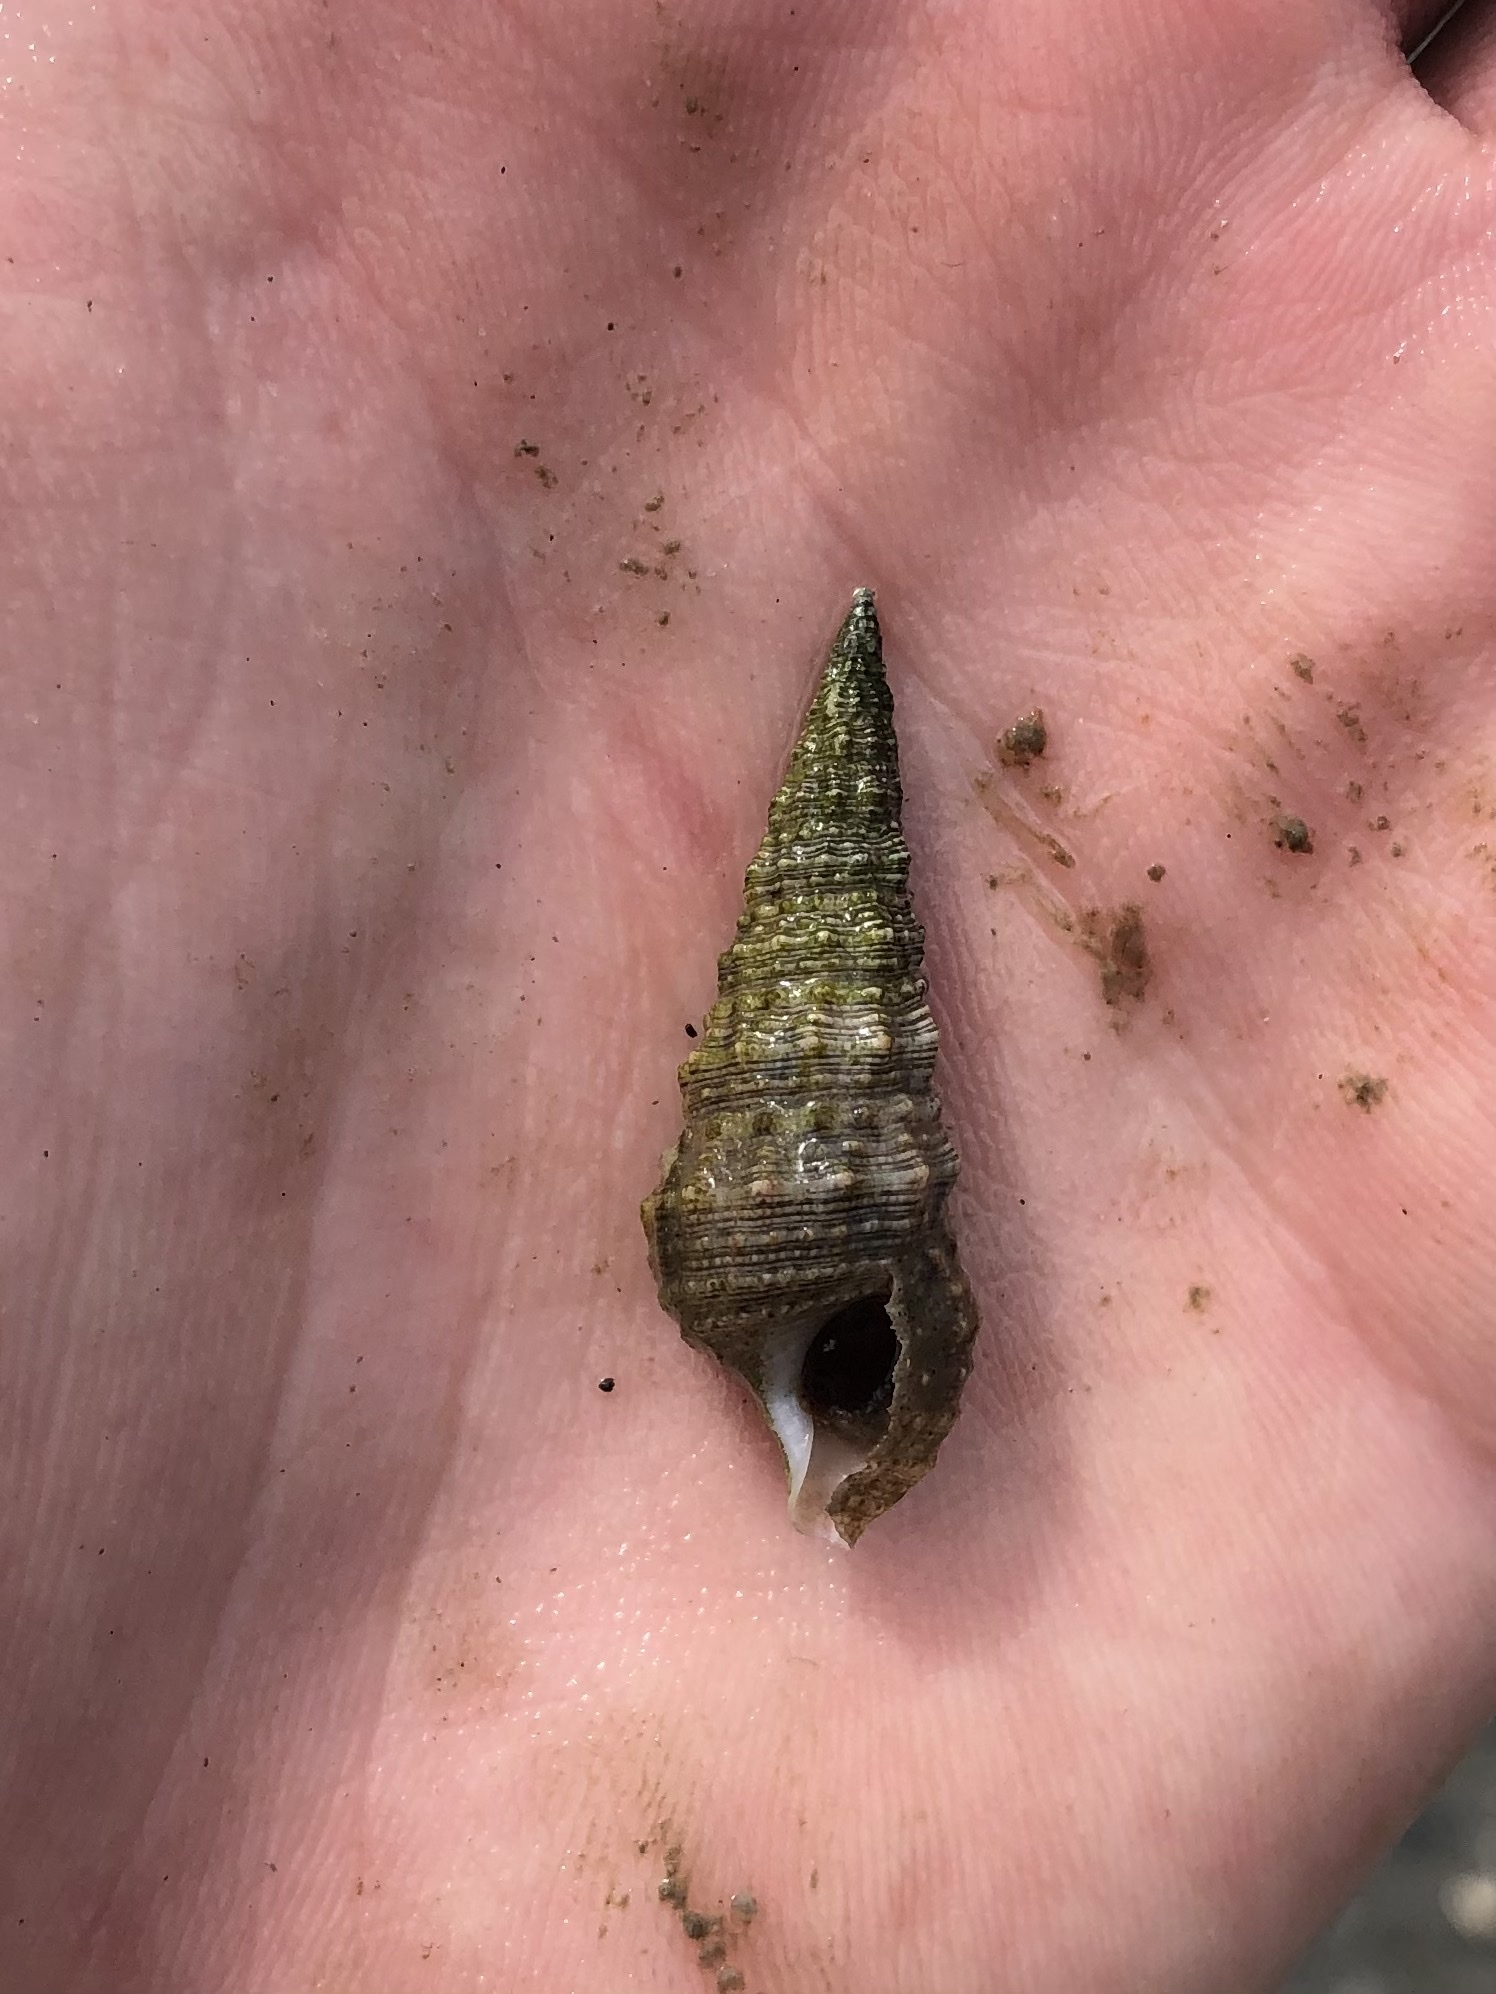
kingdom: Animalia
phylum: Mollusca
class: Gastropoda
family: Cerithiidae
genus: Cerithium
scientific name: Cerithium atratum
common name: Dark cerith
